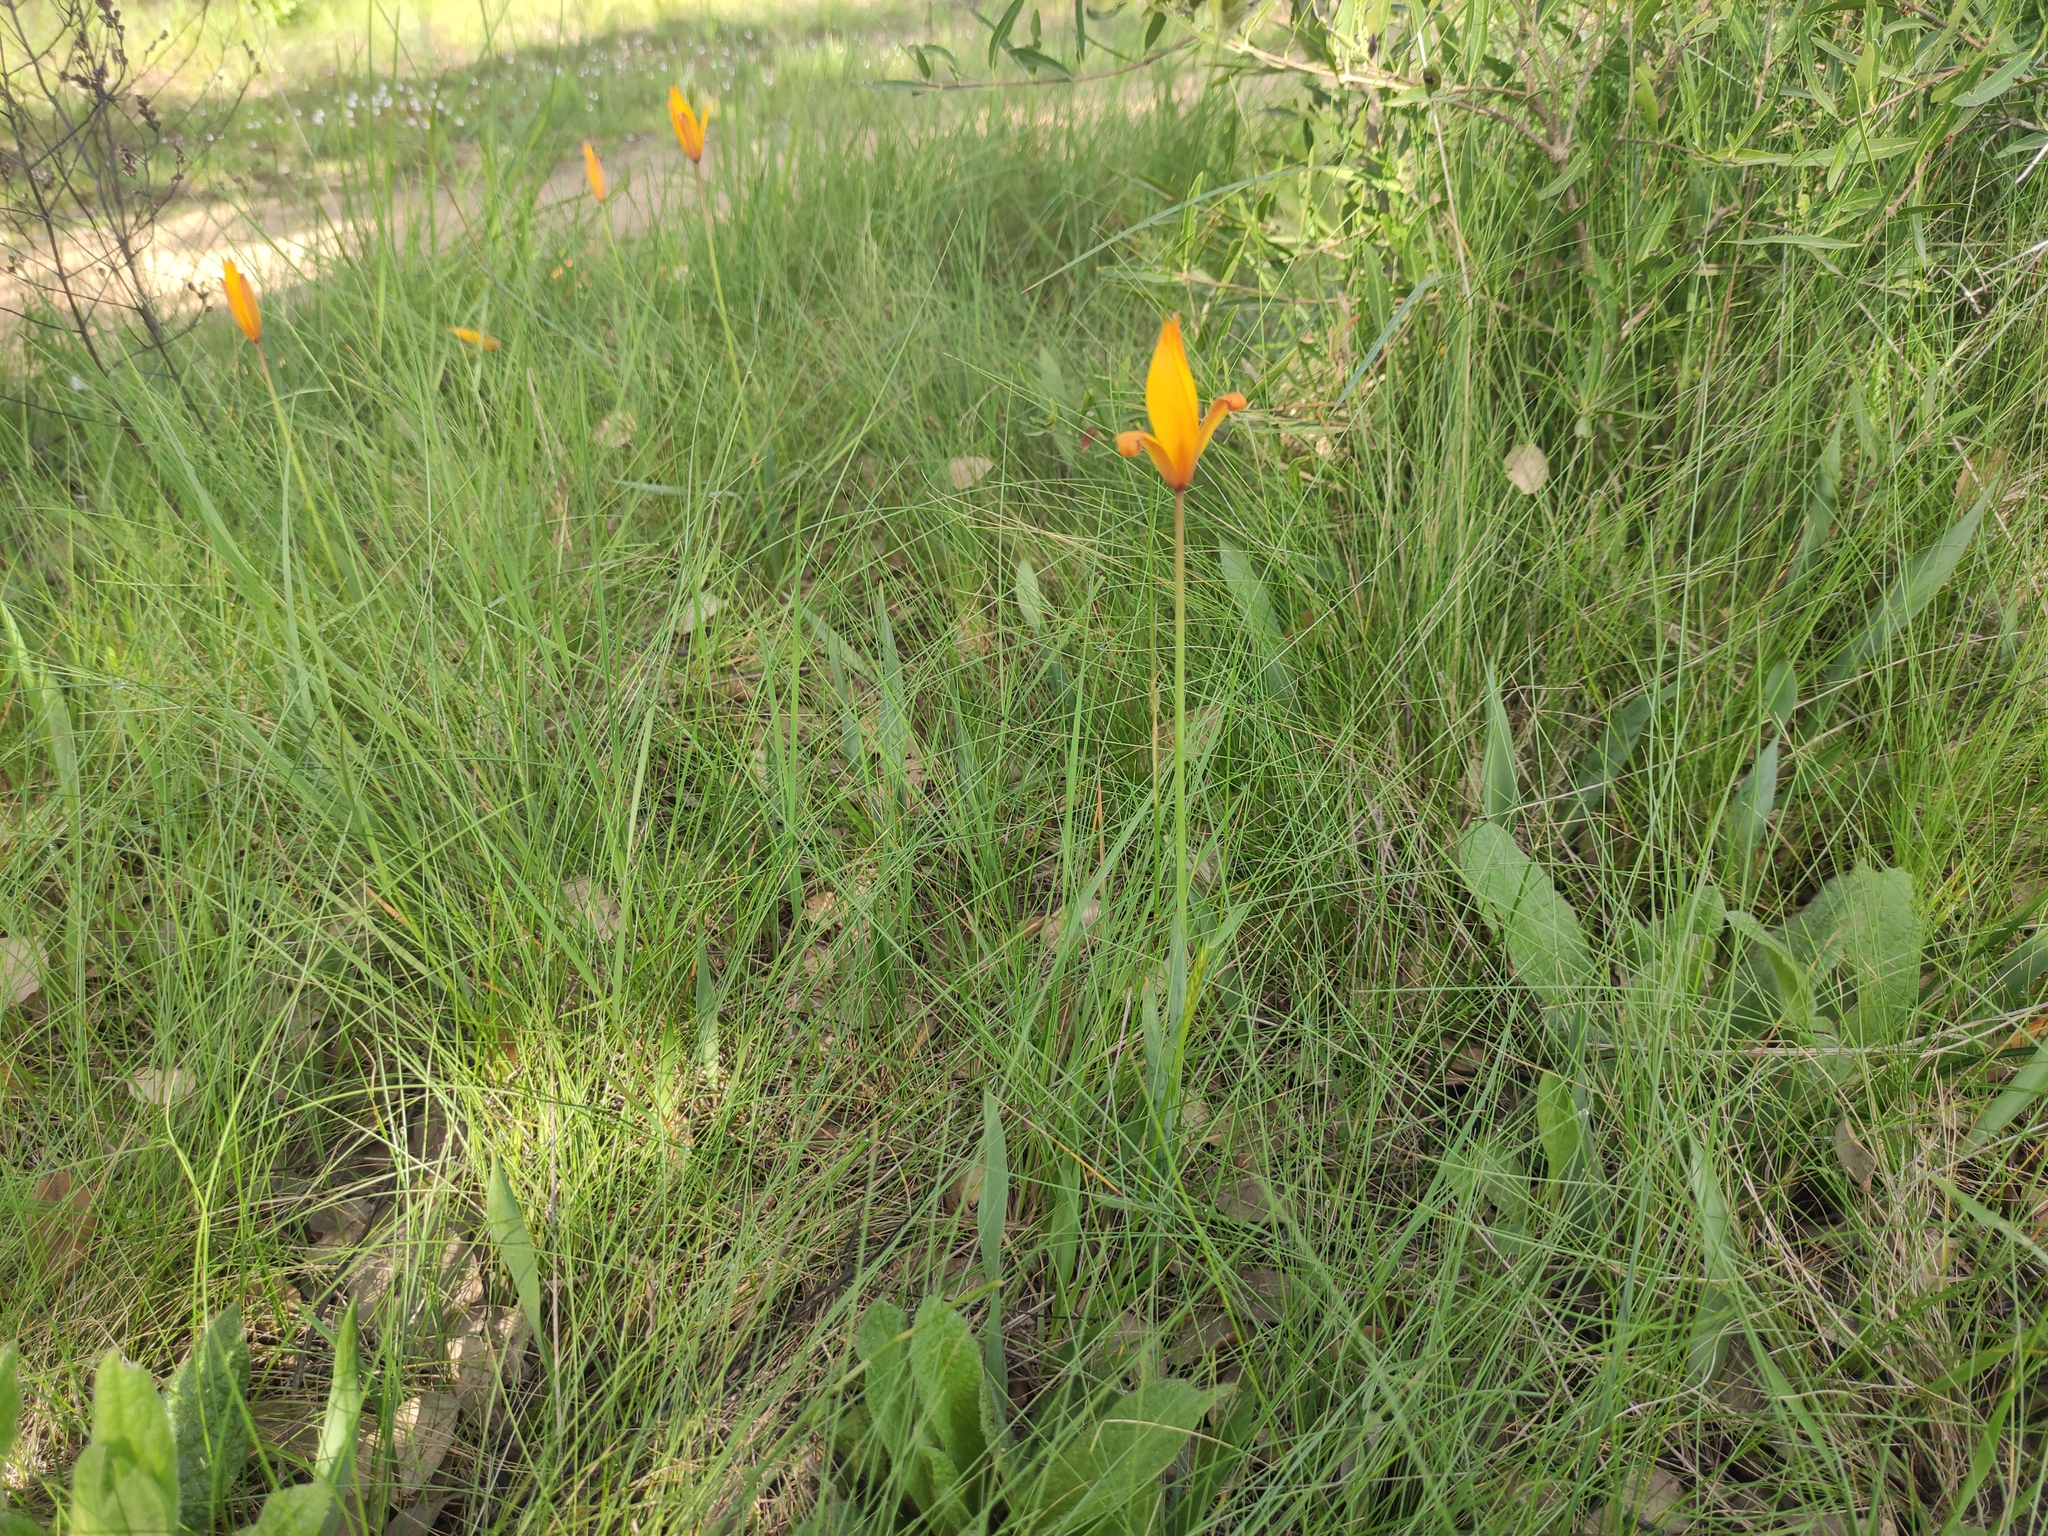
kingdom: Plantae
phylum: Tracheophyta
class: Liliopsida
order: Liliales
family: Liliaceae
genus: Tulipa
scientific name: Tulipa sylvestris
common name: Wild tulip
